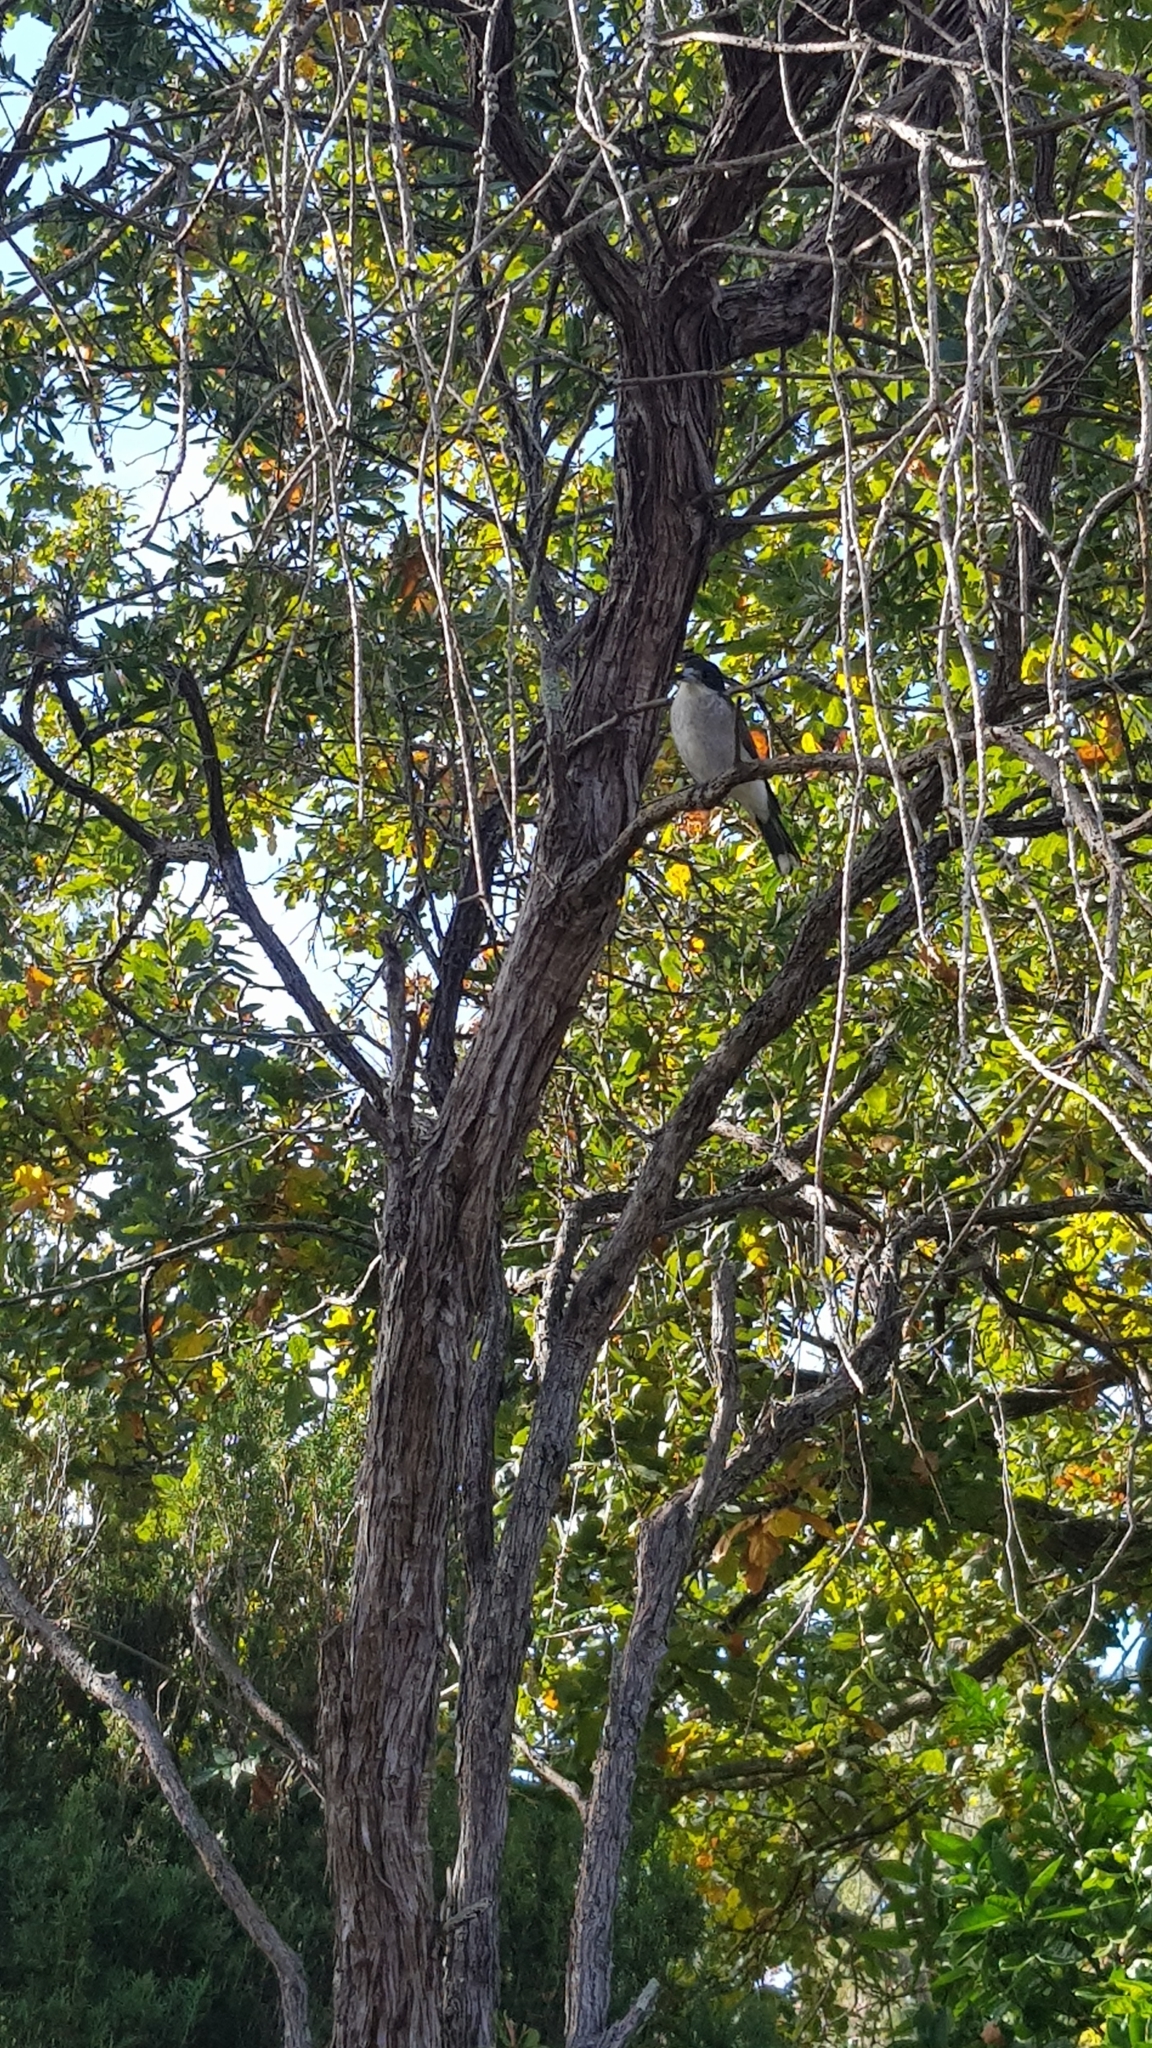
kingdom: Animalia
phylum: Chordata
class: Aves
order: Passeriformes
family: Cracticidae
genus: Cracticus
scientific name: Cracticus torquatus
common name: Grey butcherbird
